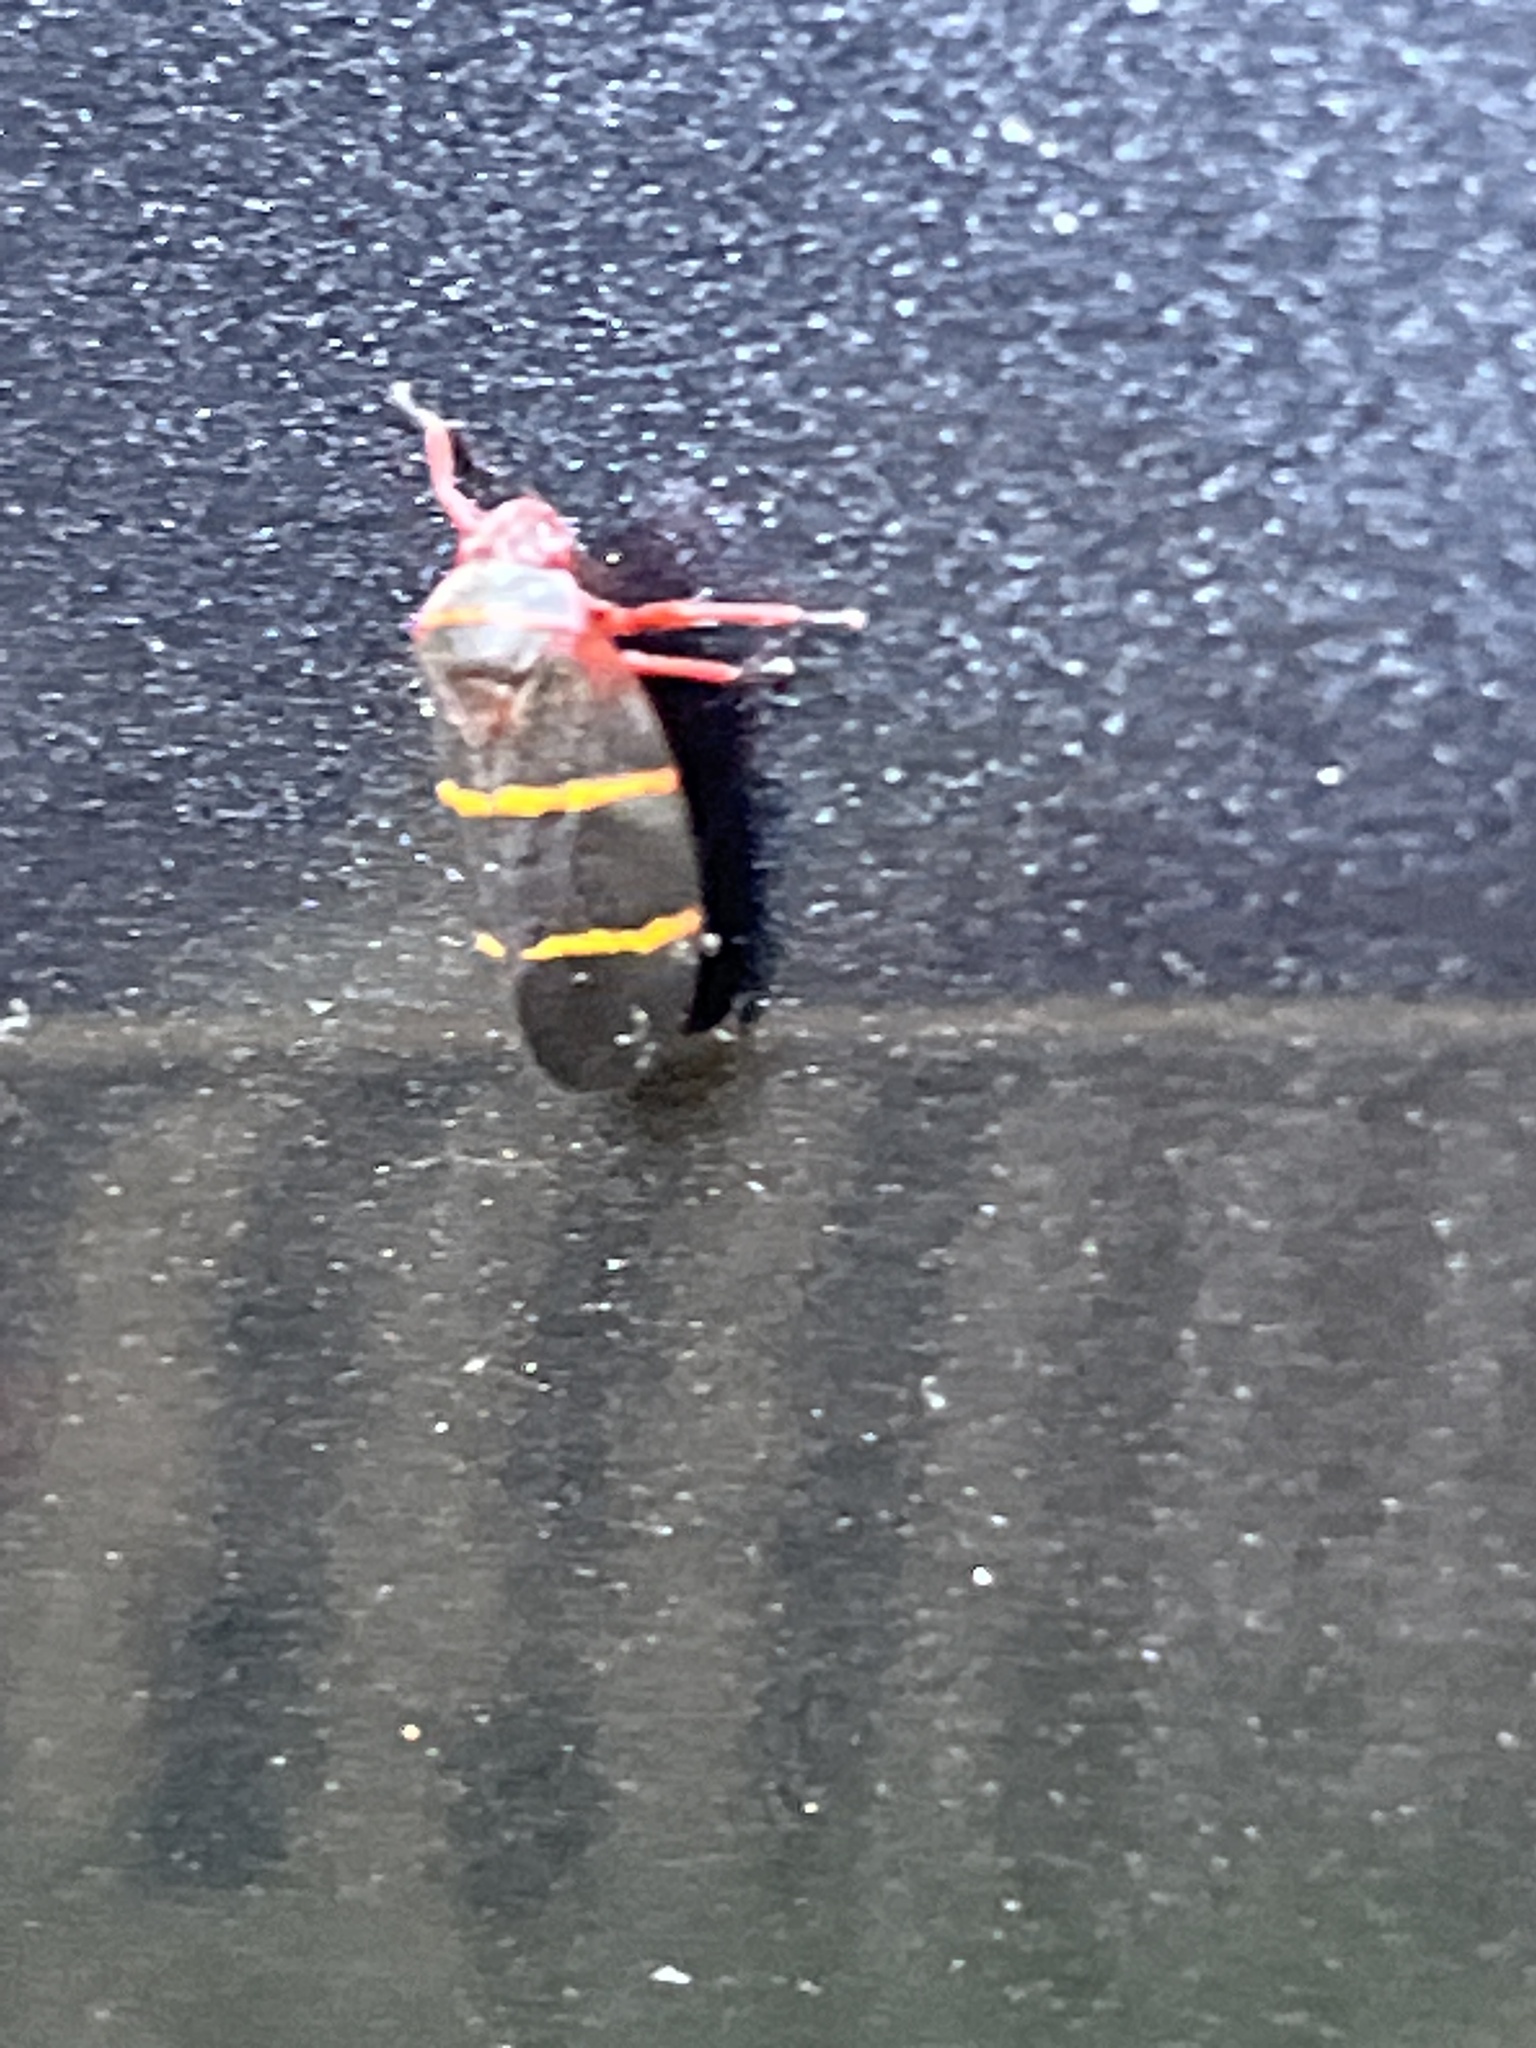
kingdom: Animalia
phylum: Arthropoda
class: Insecta
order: Hemiptera
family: Cercopidae
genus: Prosapia
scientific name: Prosapia bicincta
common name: Twolined spittlebug
